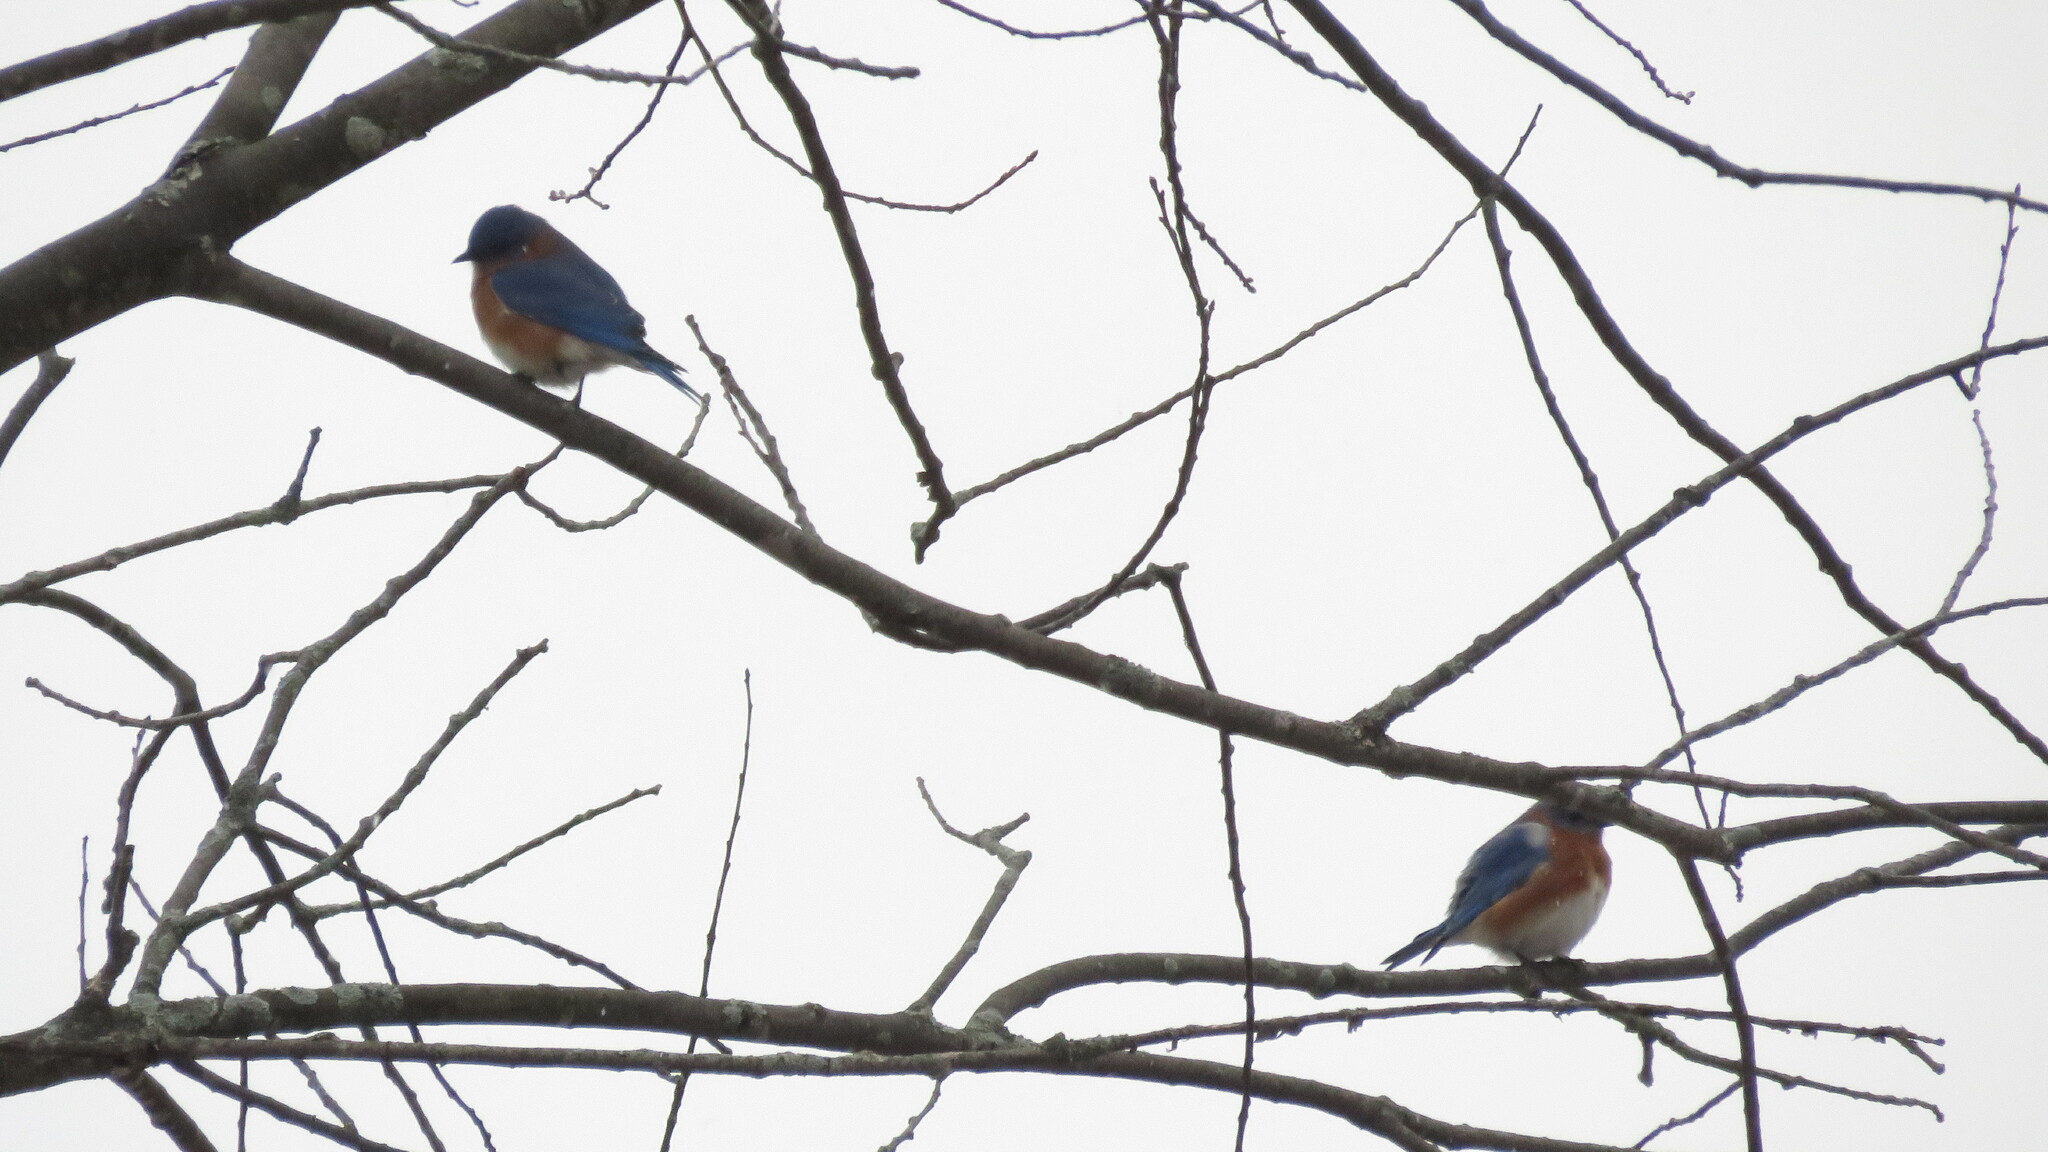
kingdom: Animalia
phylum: Chordata
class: Aves
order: Passeriformes
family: Turdidae
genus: Sialia
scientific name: Sialia sialis
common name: Eastern bluebird
